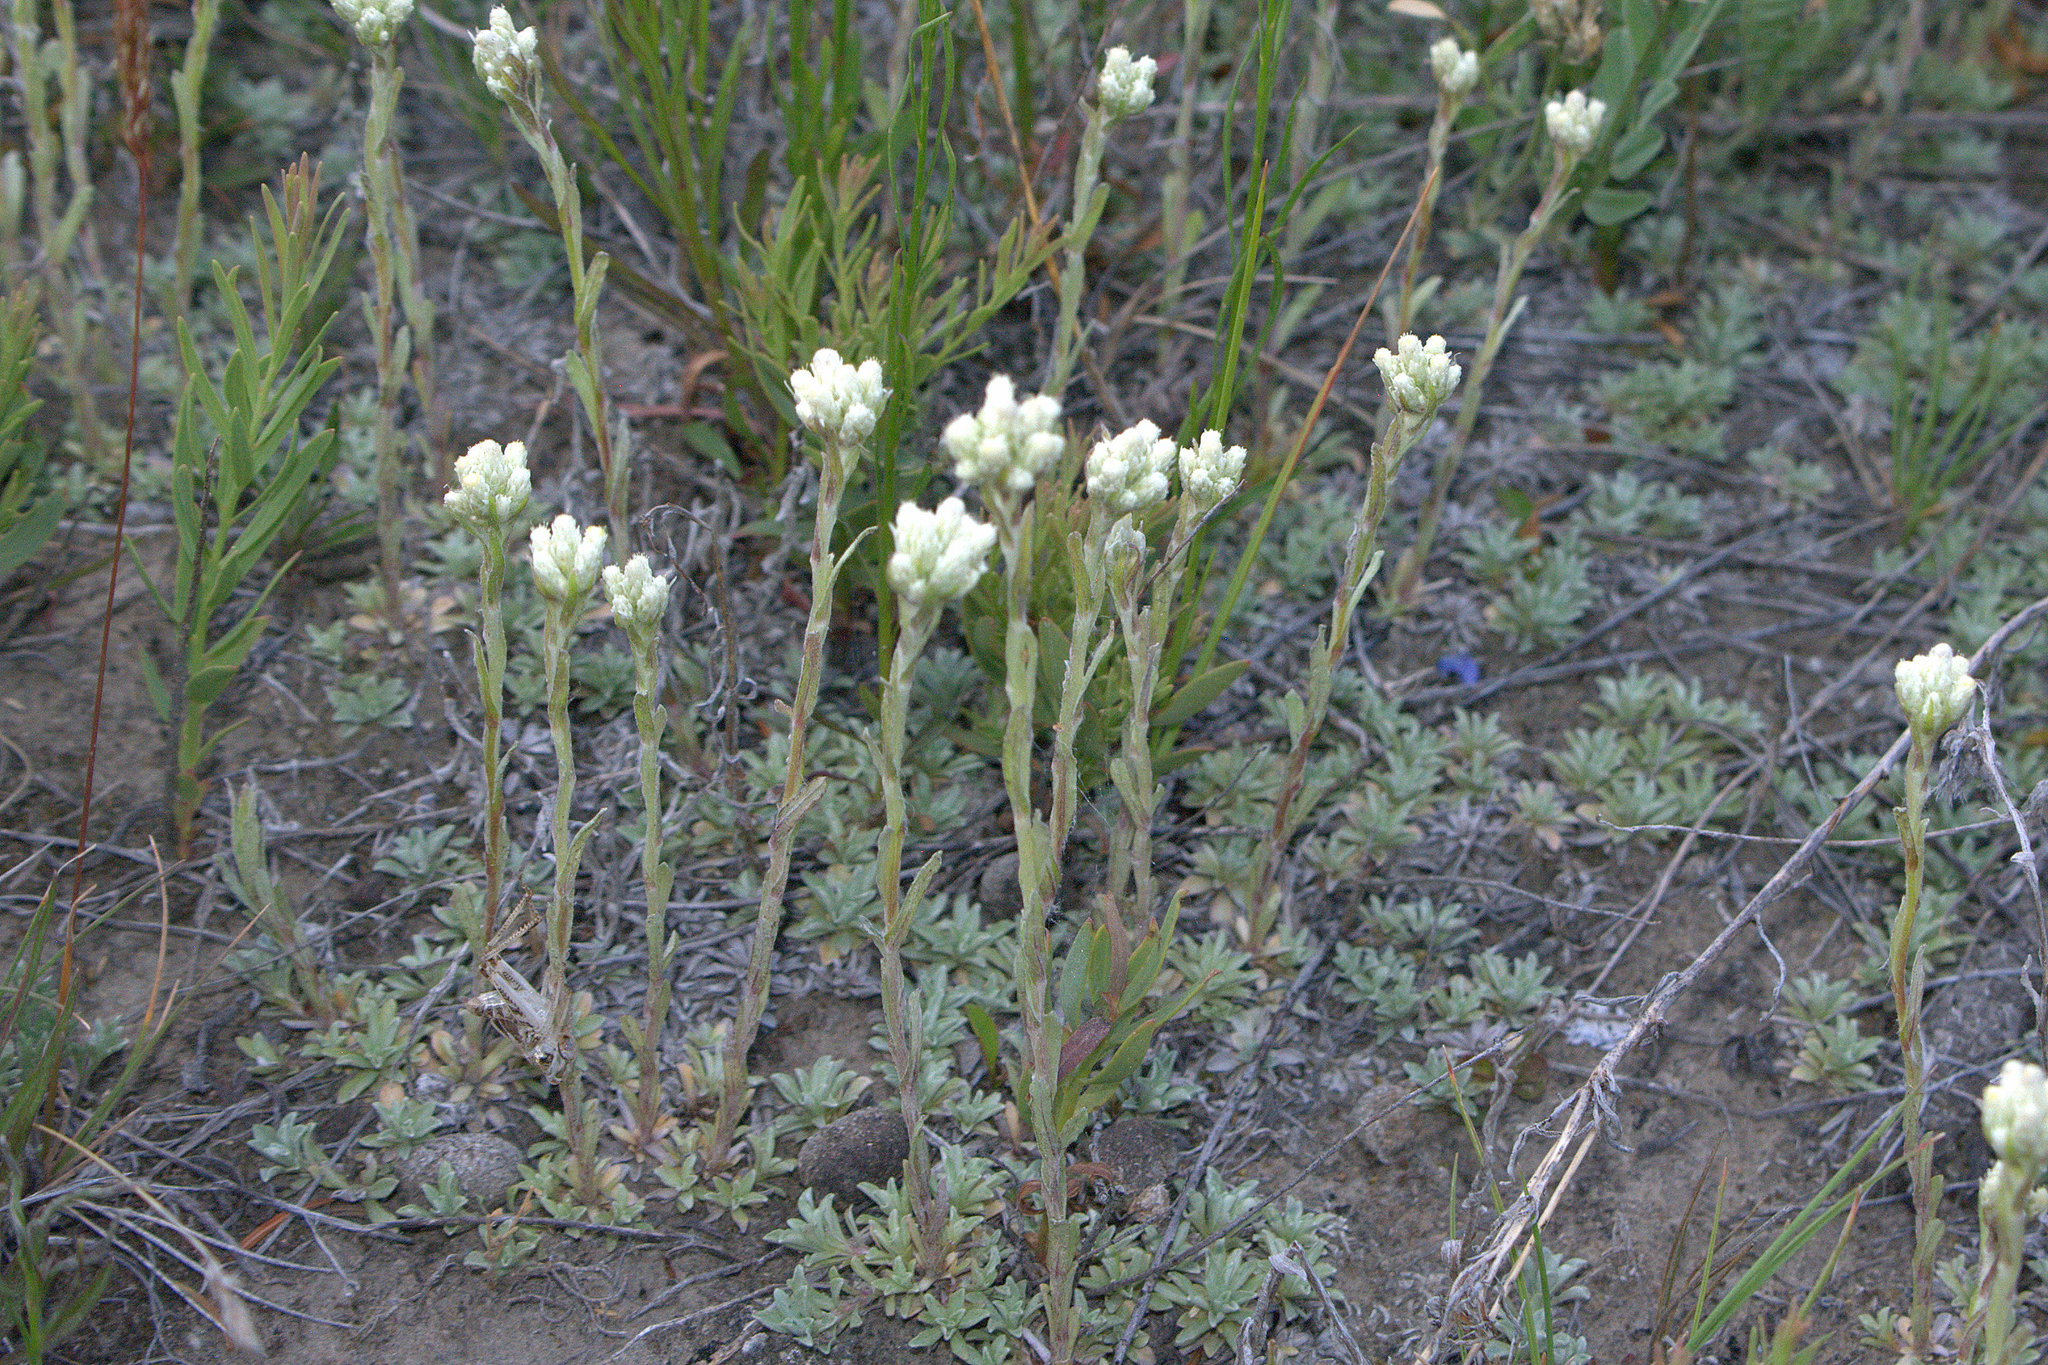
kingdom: Plantae
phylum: Tracheophyta
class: Magnoliopsida
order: Asterales
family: Asteraceae
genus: Antennaria
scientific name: Antennaria parvifolia
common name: Nuttall's pussytoes
